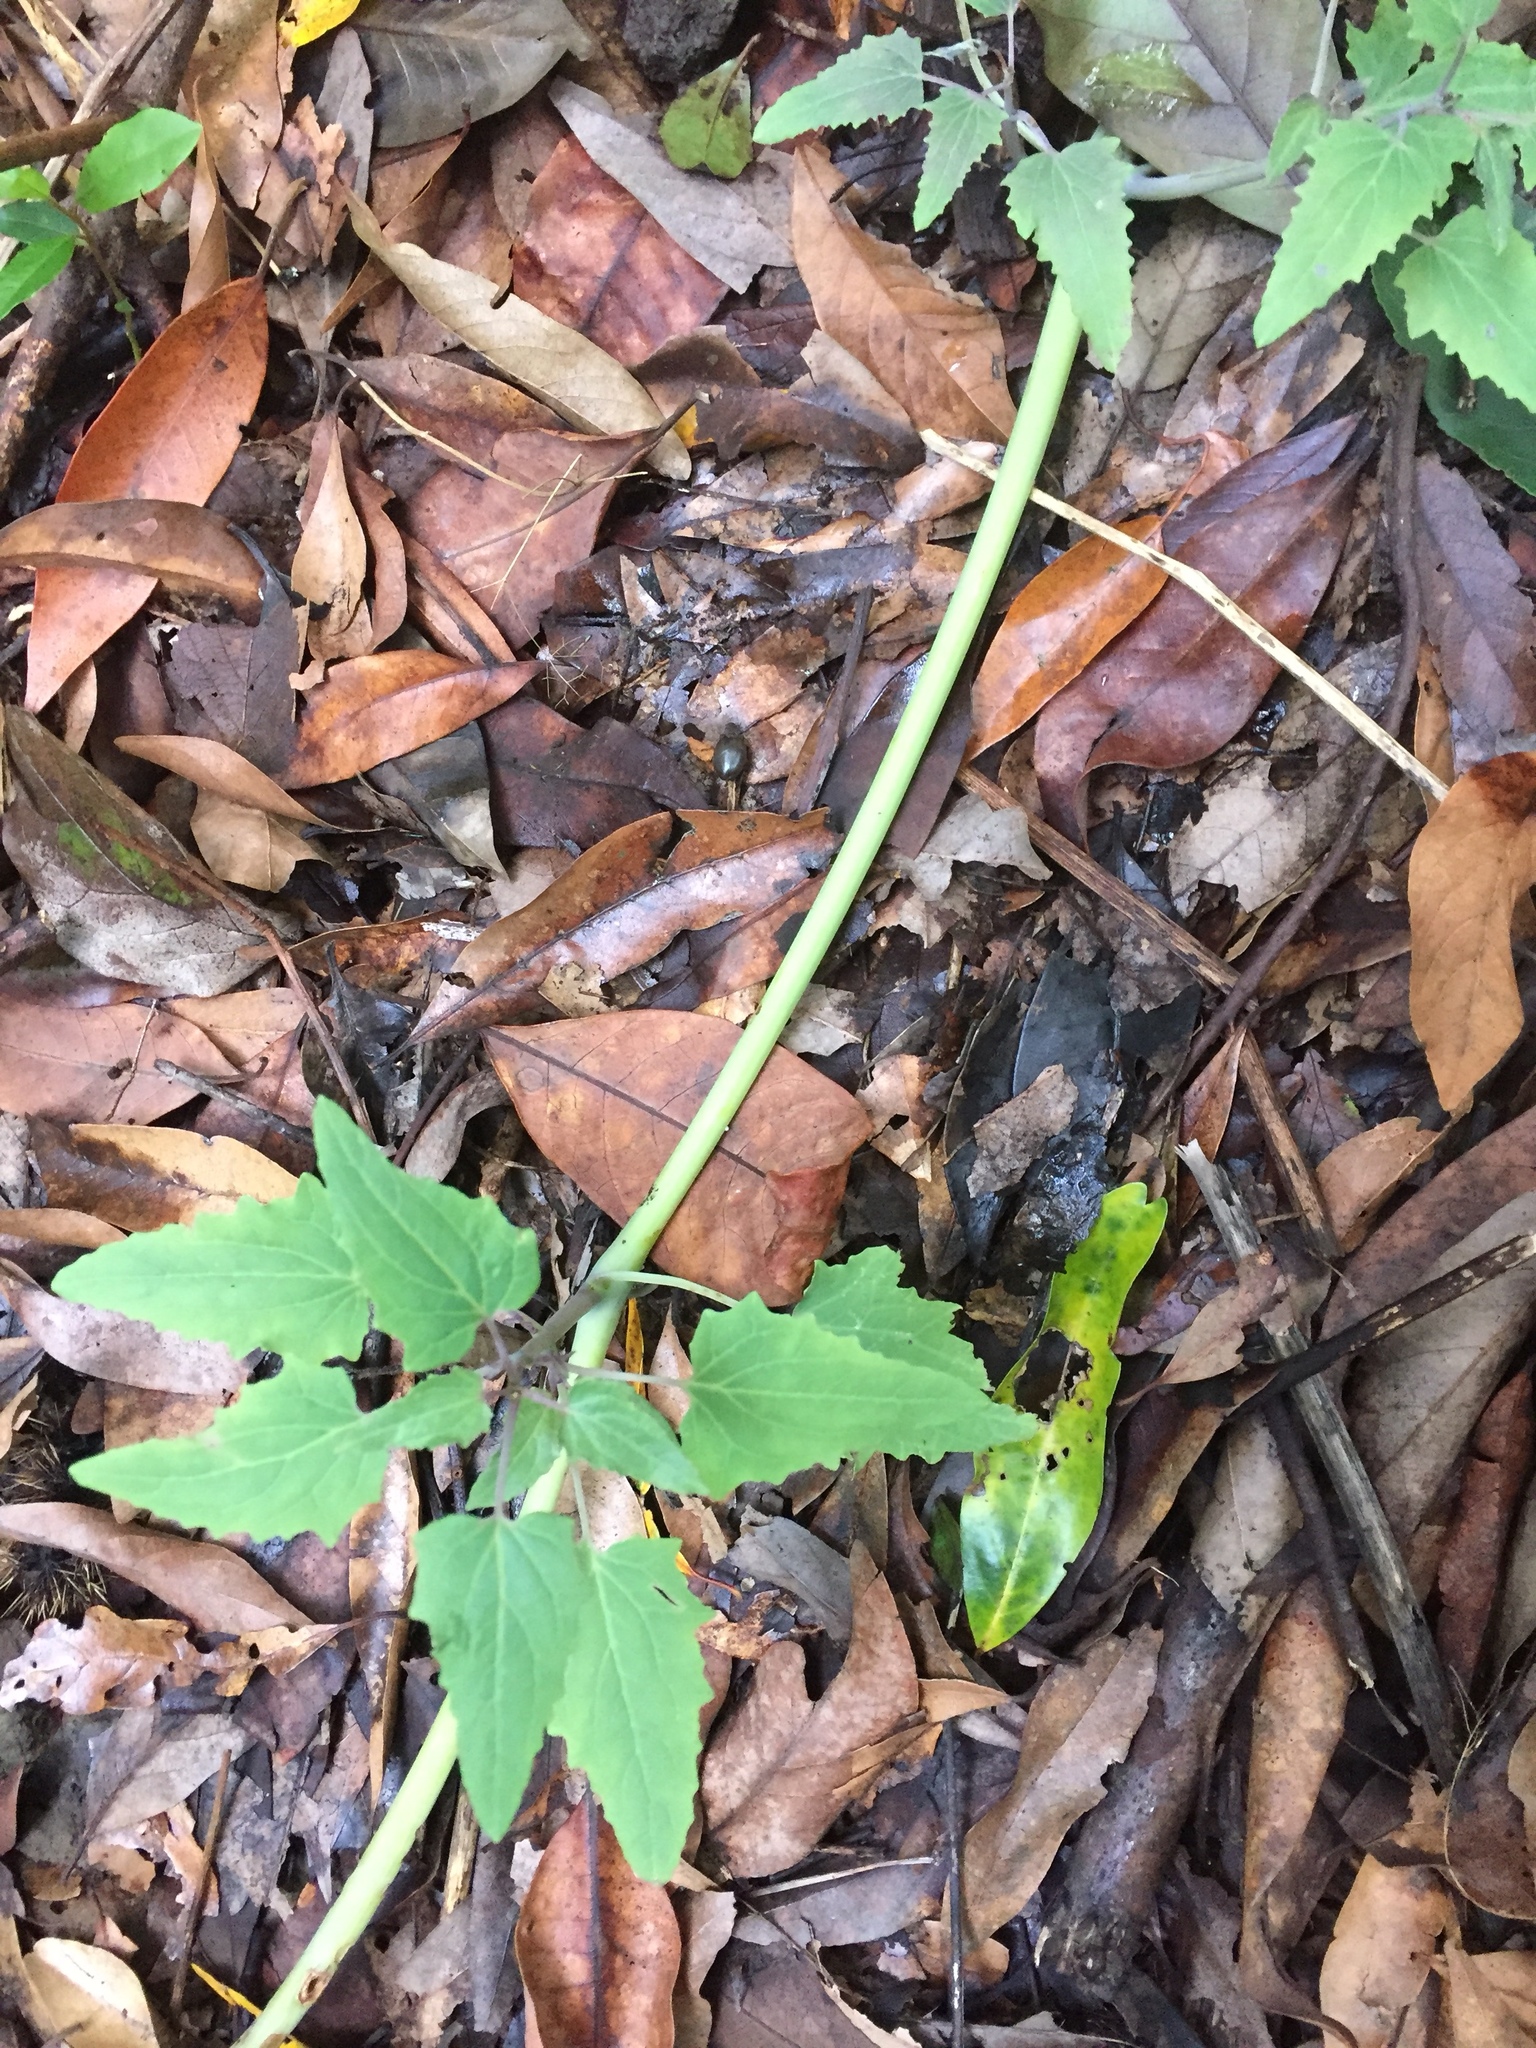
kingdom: Plantae
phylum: Tracheophyta
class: Magnoliopsida
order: Asterales
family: Campanulaceae
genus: Canarina
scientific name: Canarina canariensis
